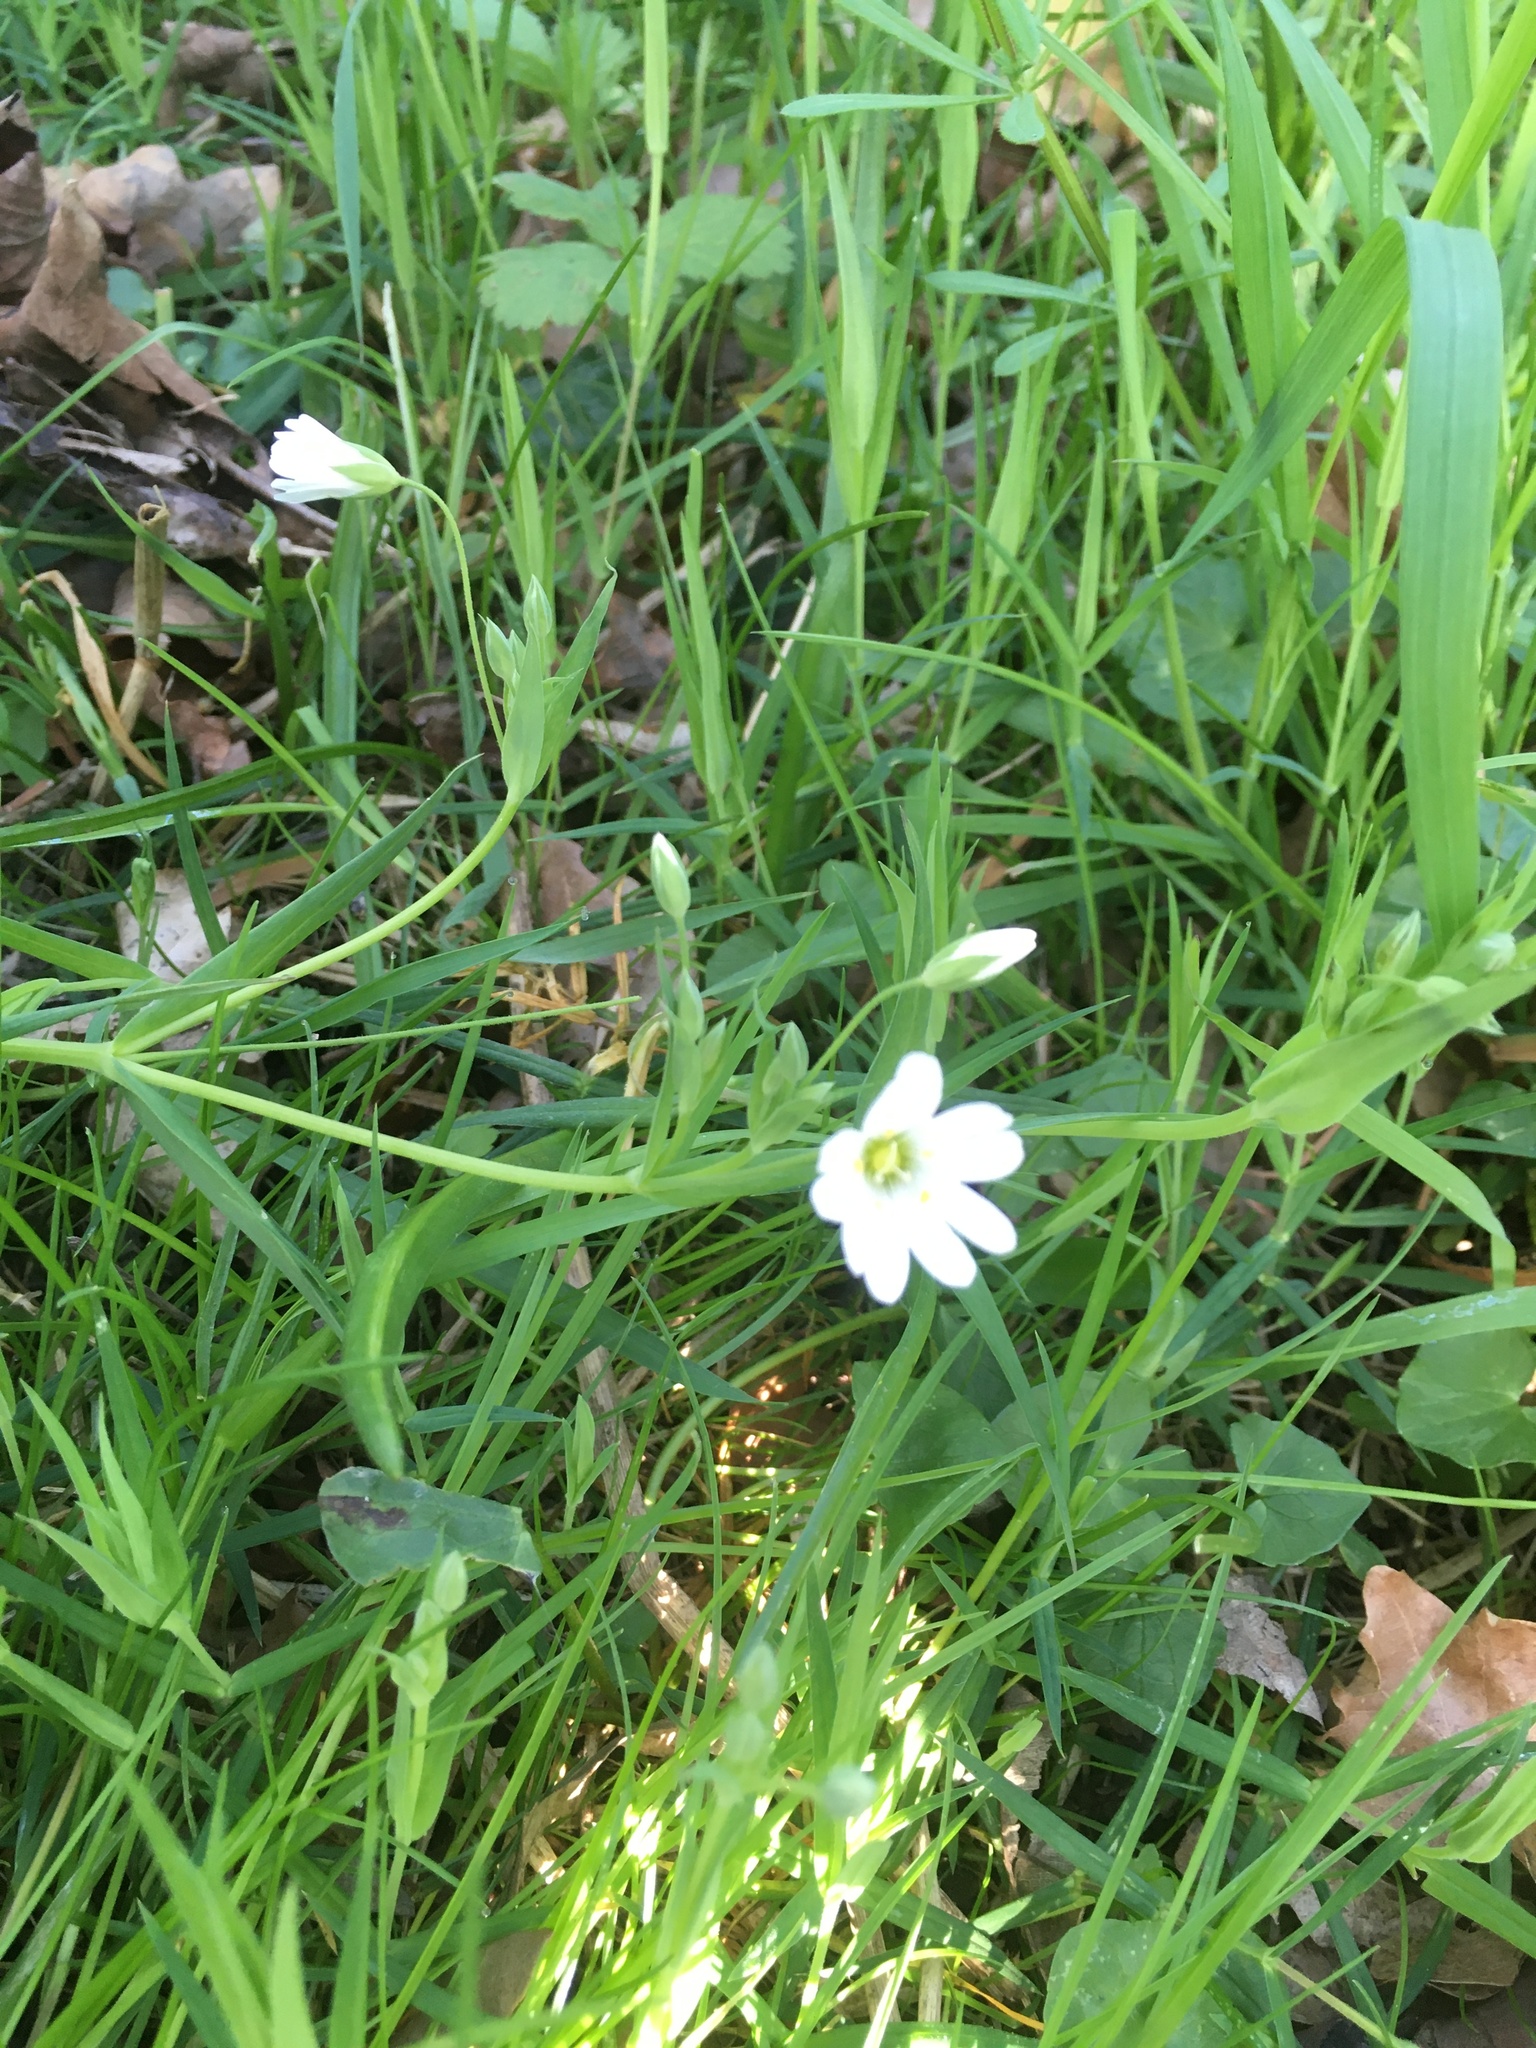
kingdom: Plantae
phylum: Tracheophyta
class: Magnoliopsida
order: Caryophyllales
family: Caryophyllaceae
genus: Rabelera
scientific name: Rabelera holostea
